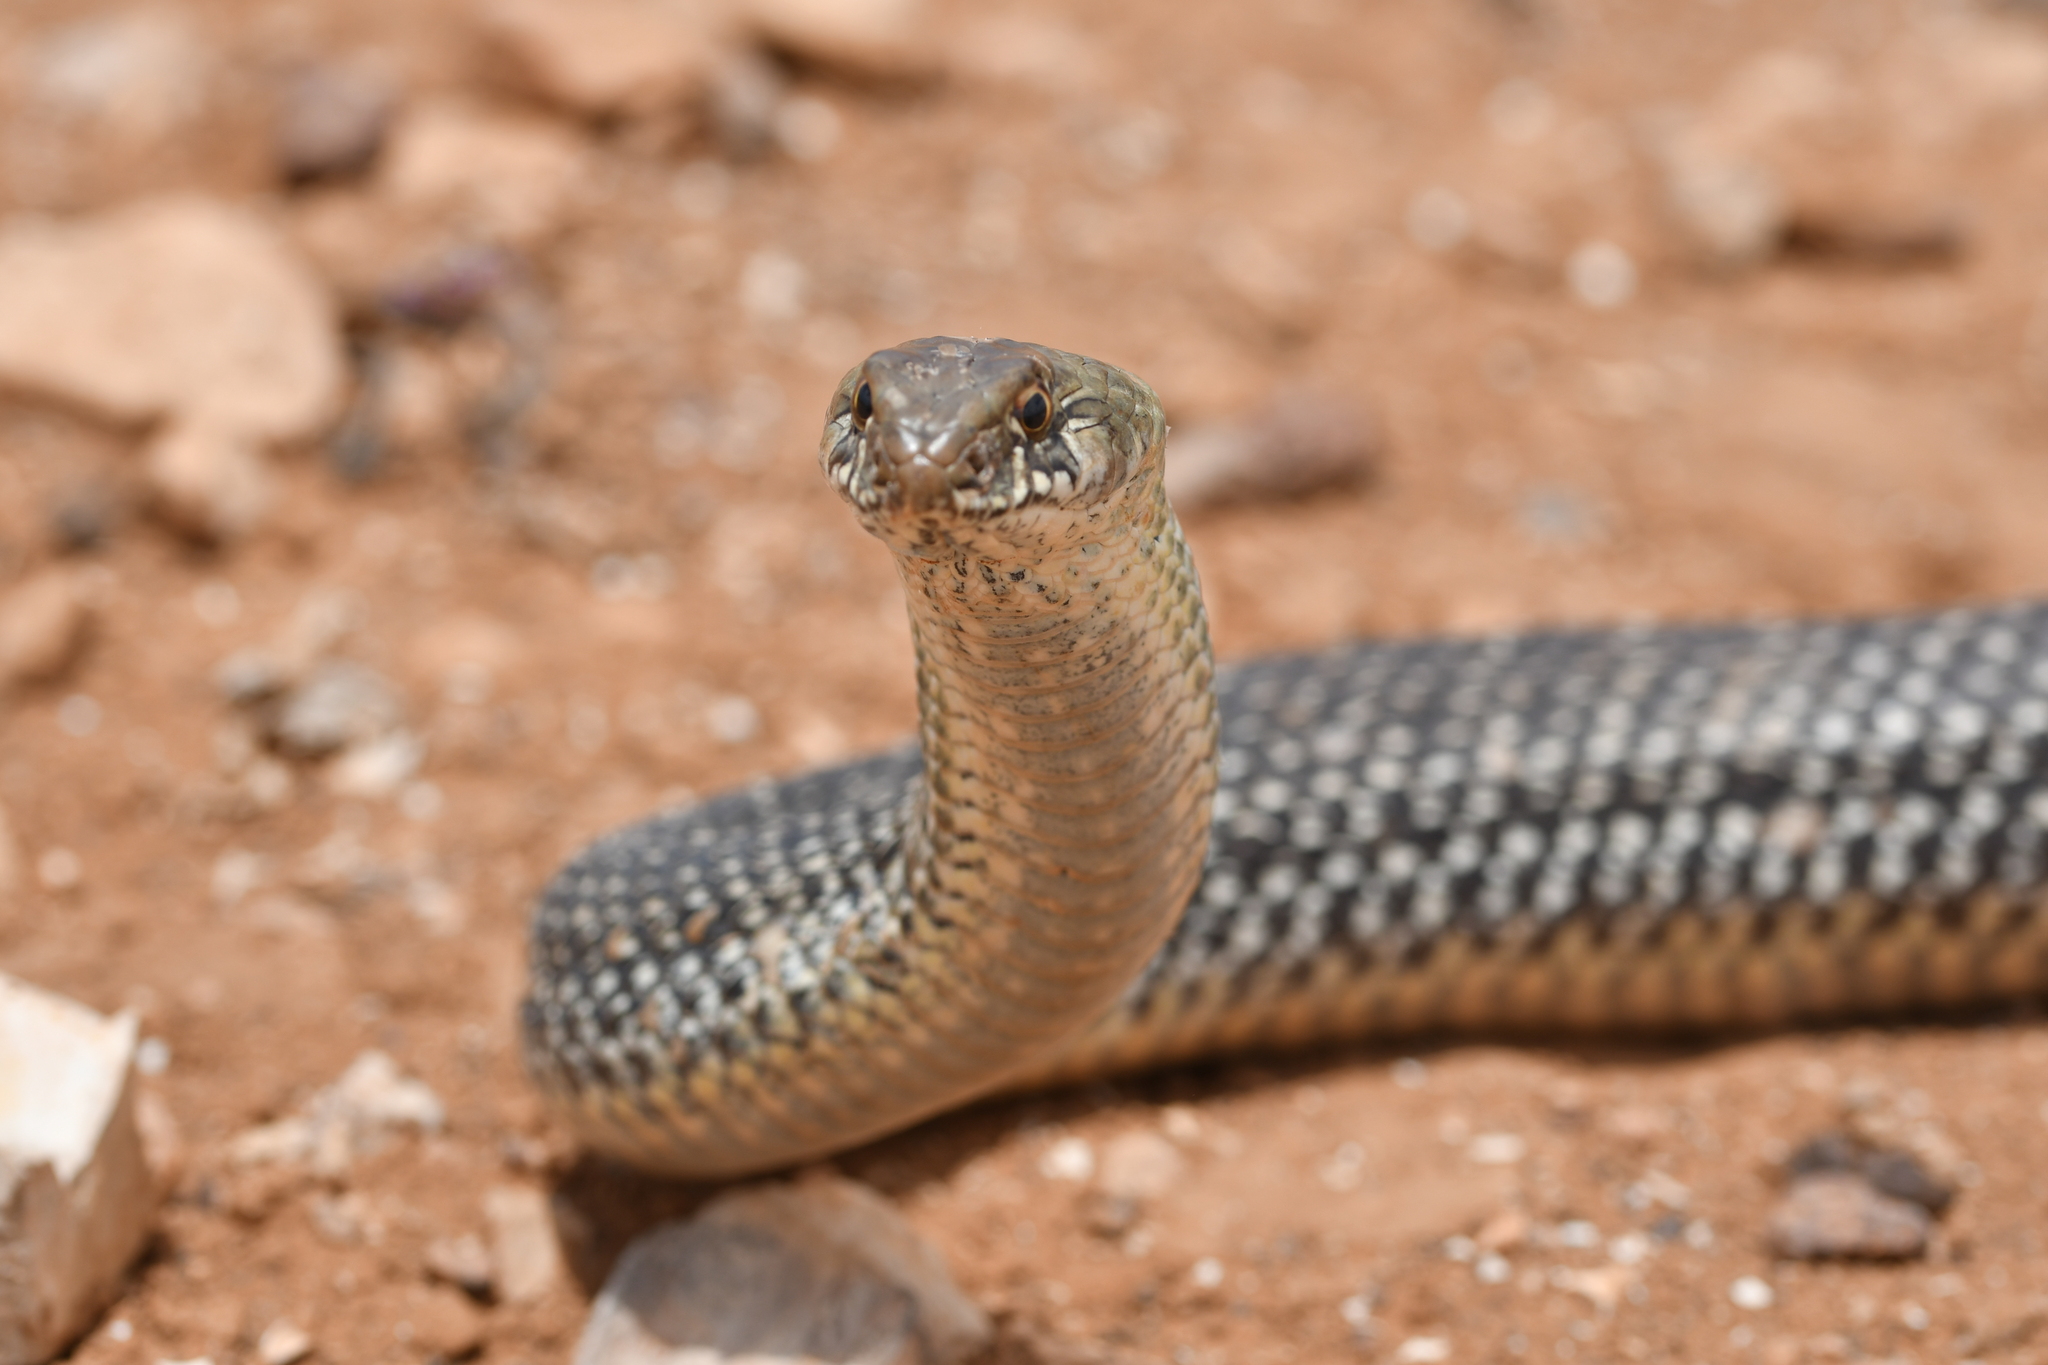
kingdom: Animalia
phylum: Chordata
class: Squamata
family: Psammophiidae
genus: Malpolon
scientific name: Malpolon monspessulanus
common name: Montpellier snake
